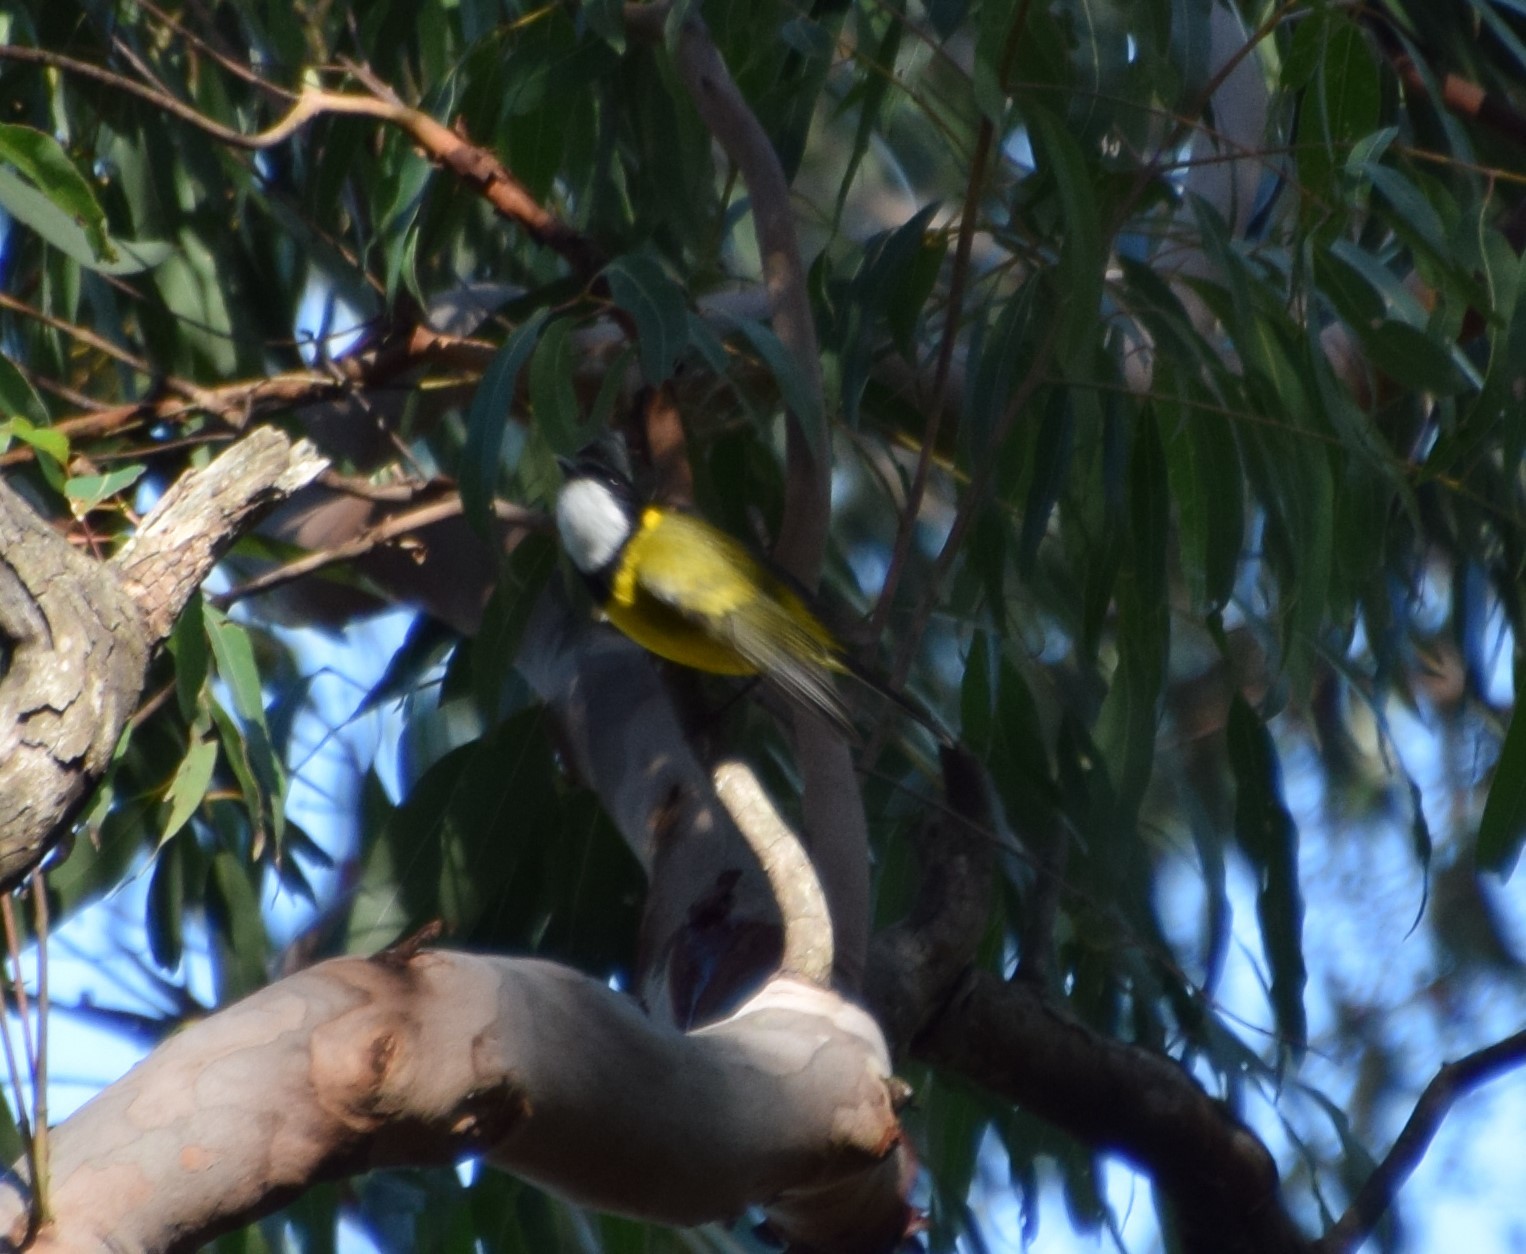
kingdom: Animalia
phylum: Chordata
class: Aves
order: Passeriformes
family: Pachycephalidae
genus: Pachycephala
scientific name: Pachycephala pectoralis
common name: Australian golden whistler
